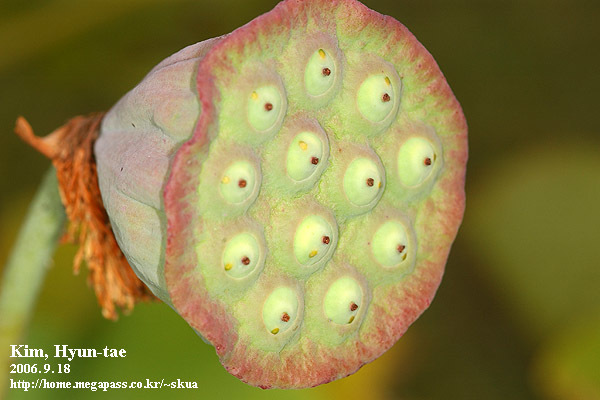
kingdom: Plantae
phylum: Tracheophyta
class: Magnoliopsida
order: Proteales
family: Nelumbonaceae
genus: Nelumbo
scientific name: Nelumbo nucifera
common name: Sacred lotus
